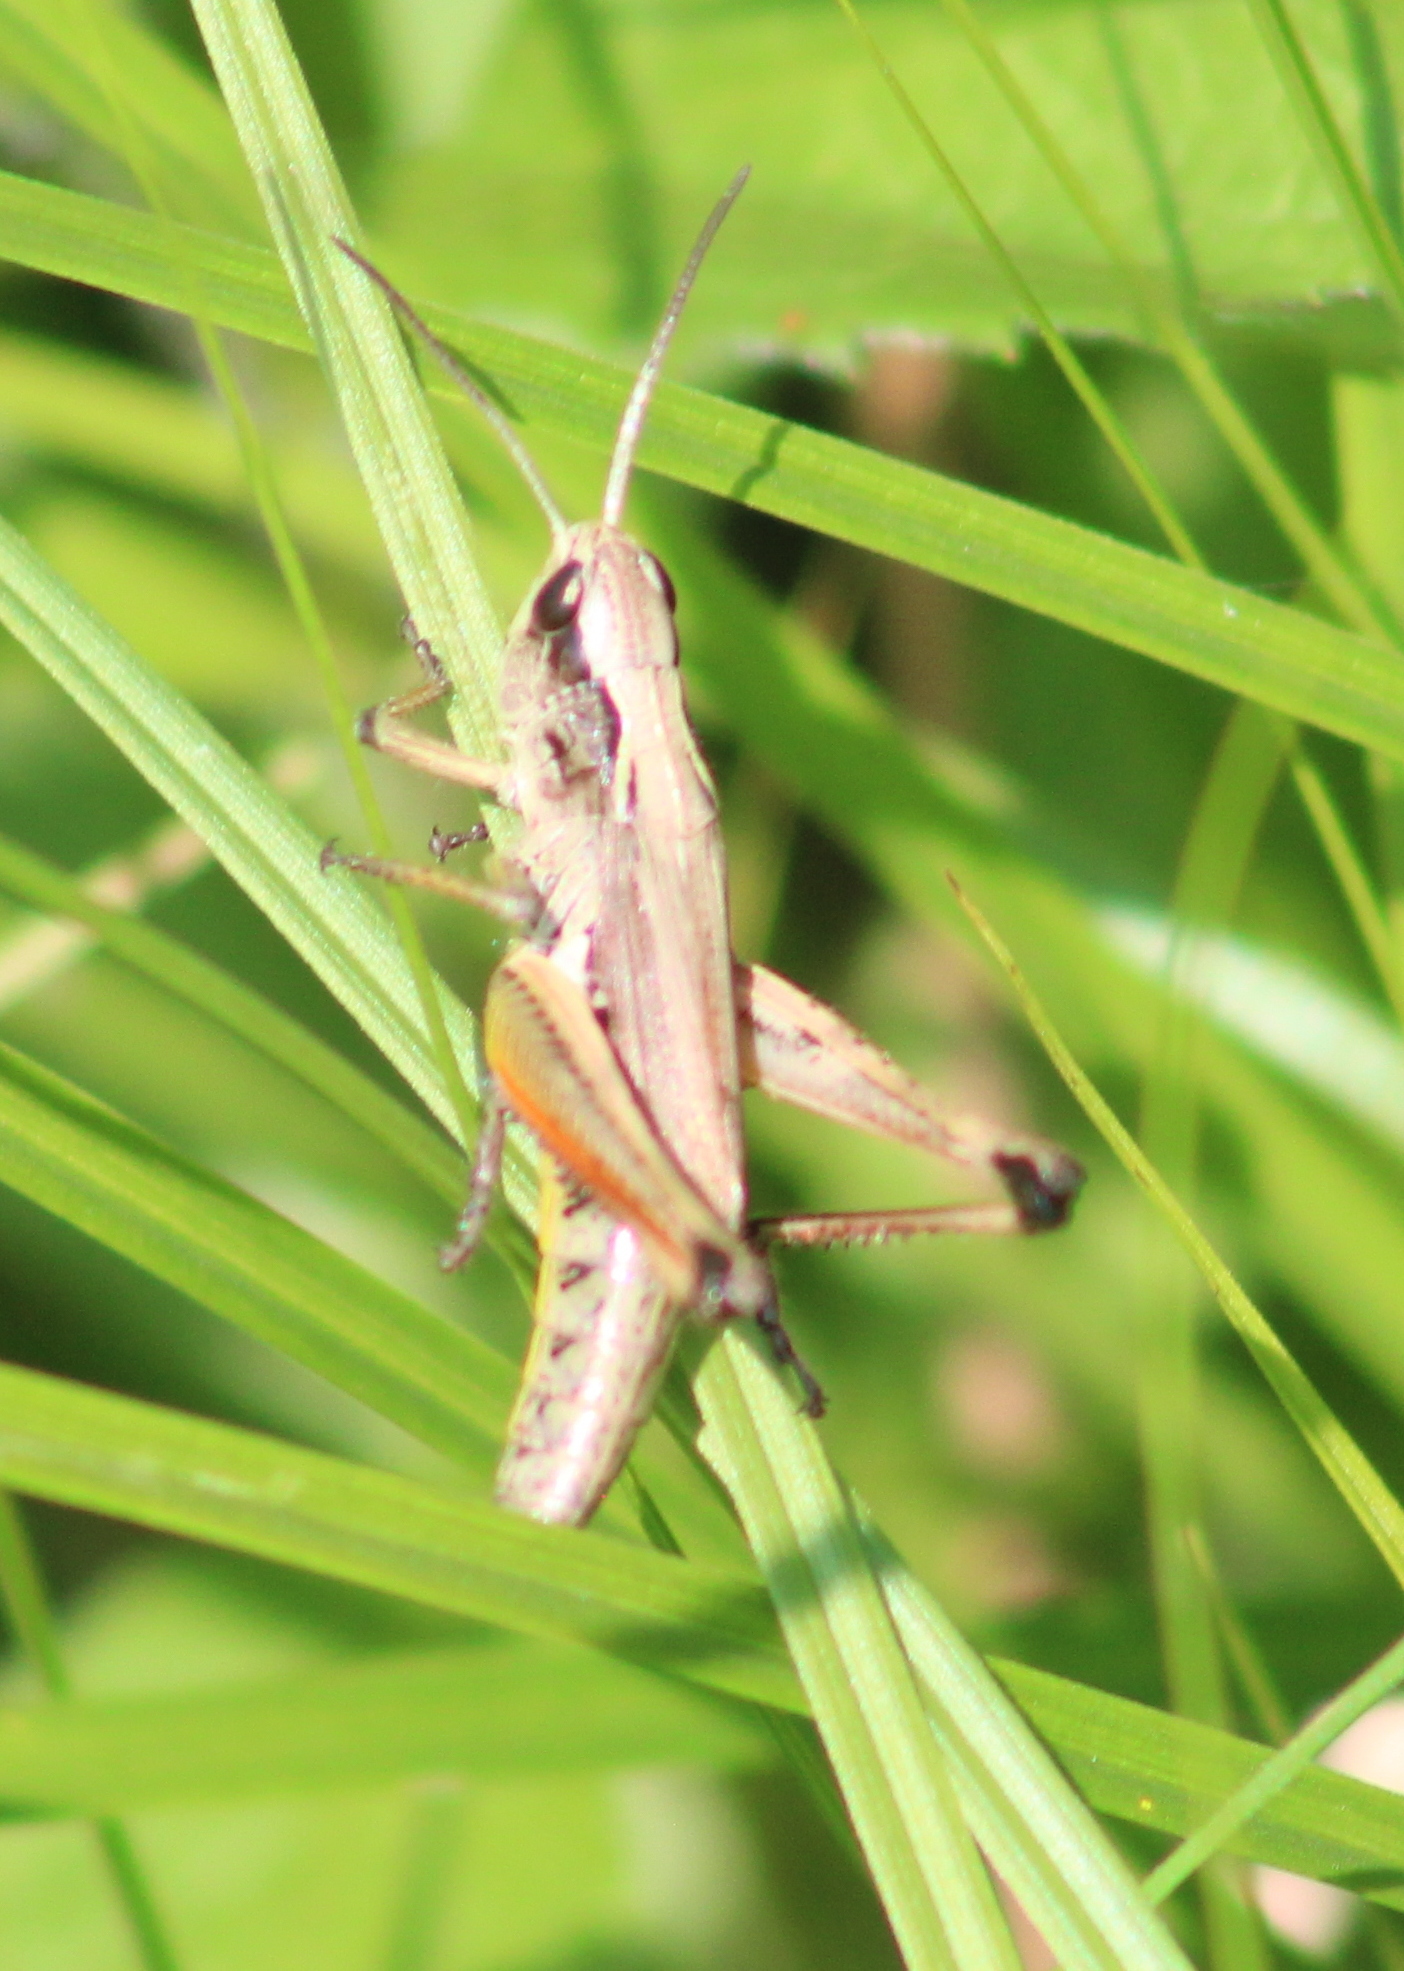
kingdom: Animalia
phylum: Arthropoda
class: Insecta
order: Orthoptera
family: Acrididae
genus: Pseudochorthippus
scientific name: Pseudochorthippus curtipennis
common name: Marsh meadow grasshopper
